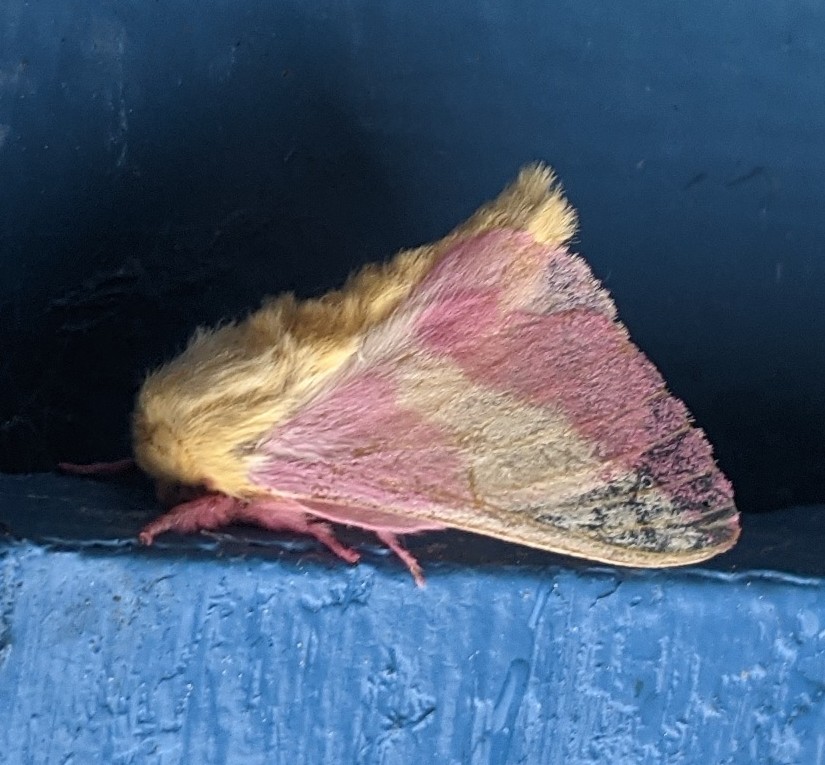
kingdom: Animalia
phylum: Arthropoda
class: Insecta
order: Lepidoptera
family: Saturniidae
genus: Dryocampa
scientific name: Dryocampa rubicunda
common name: Rosy maple moth
